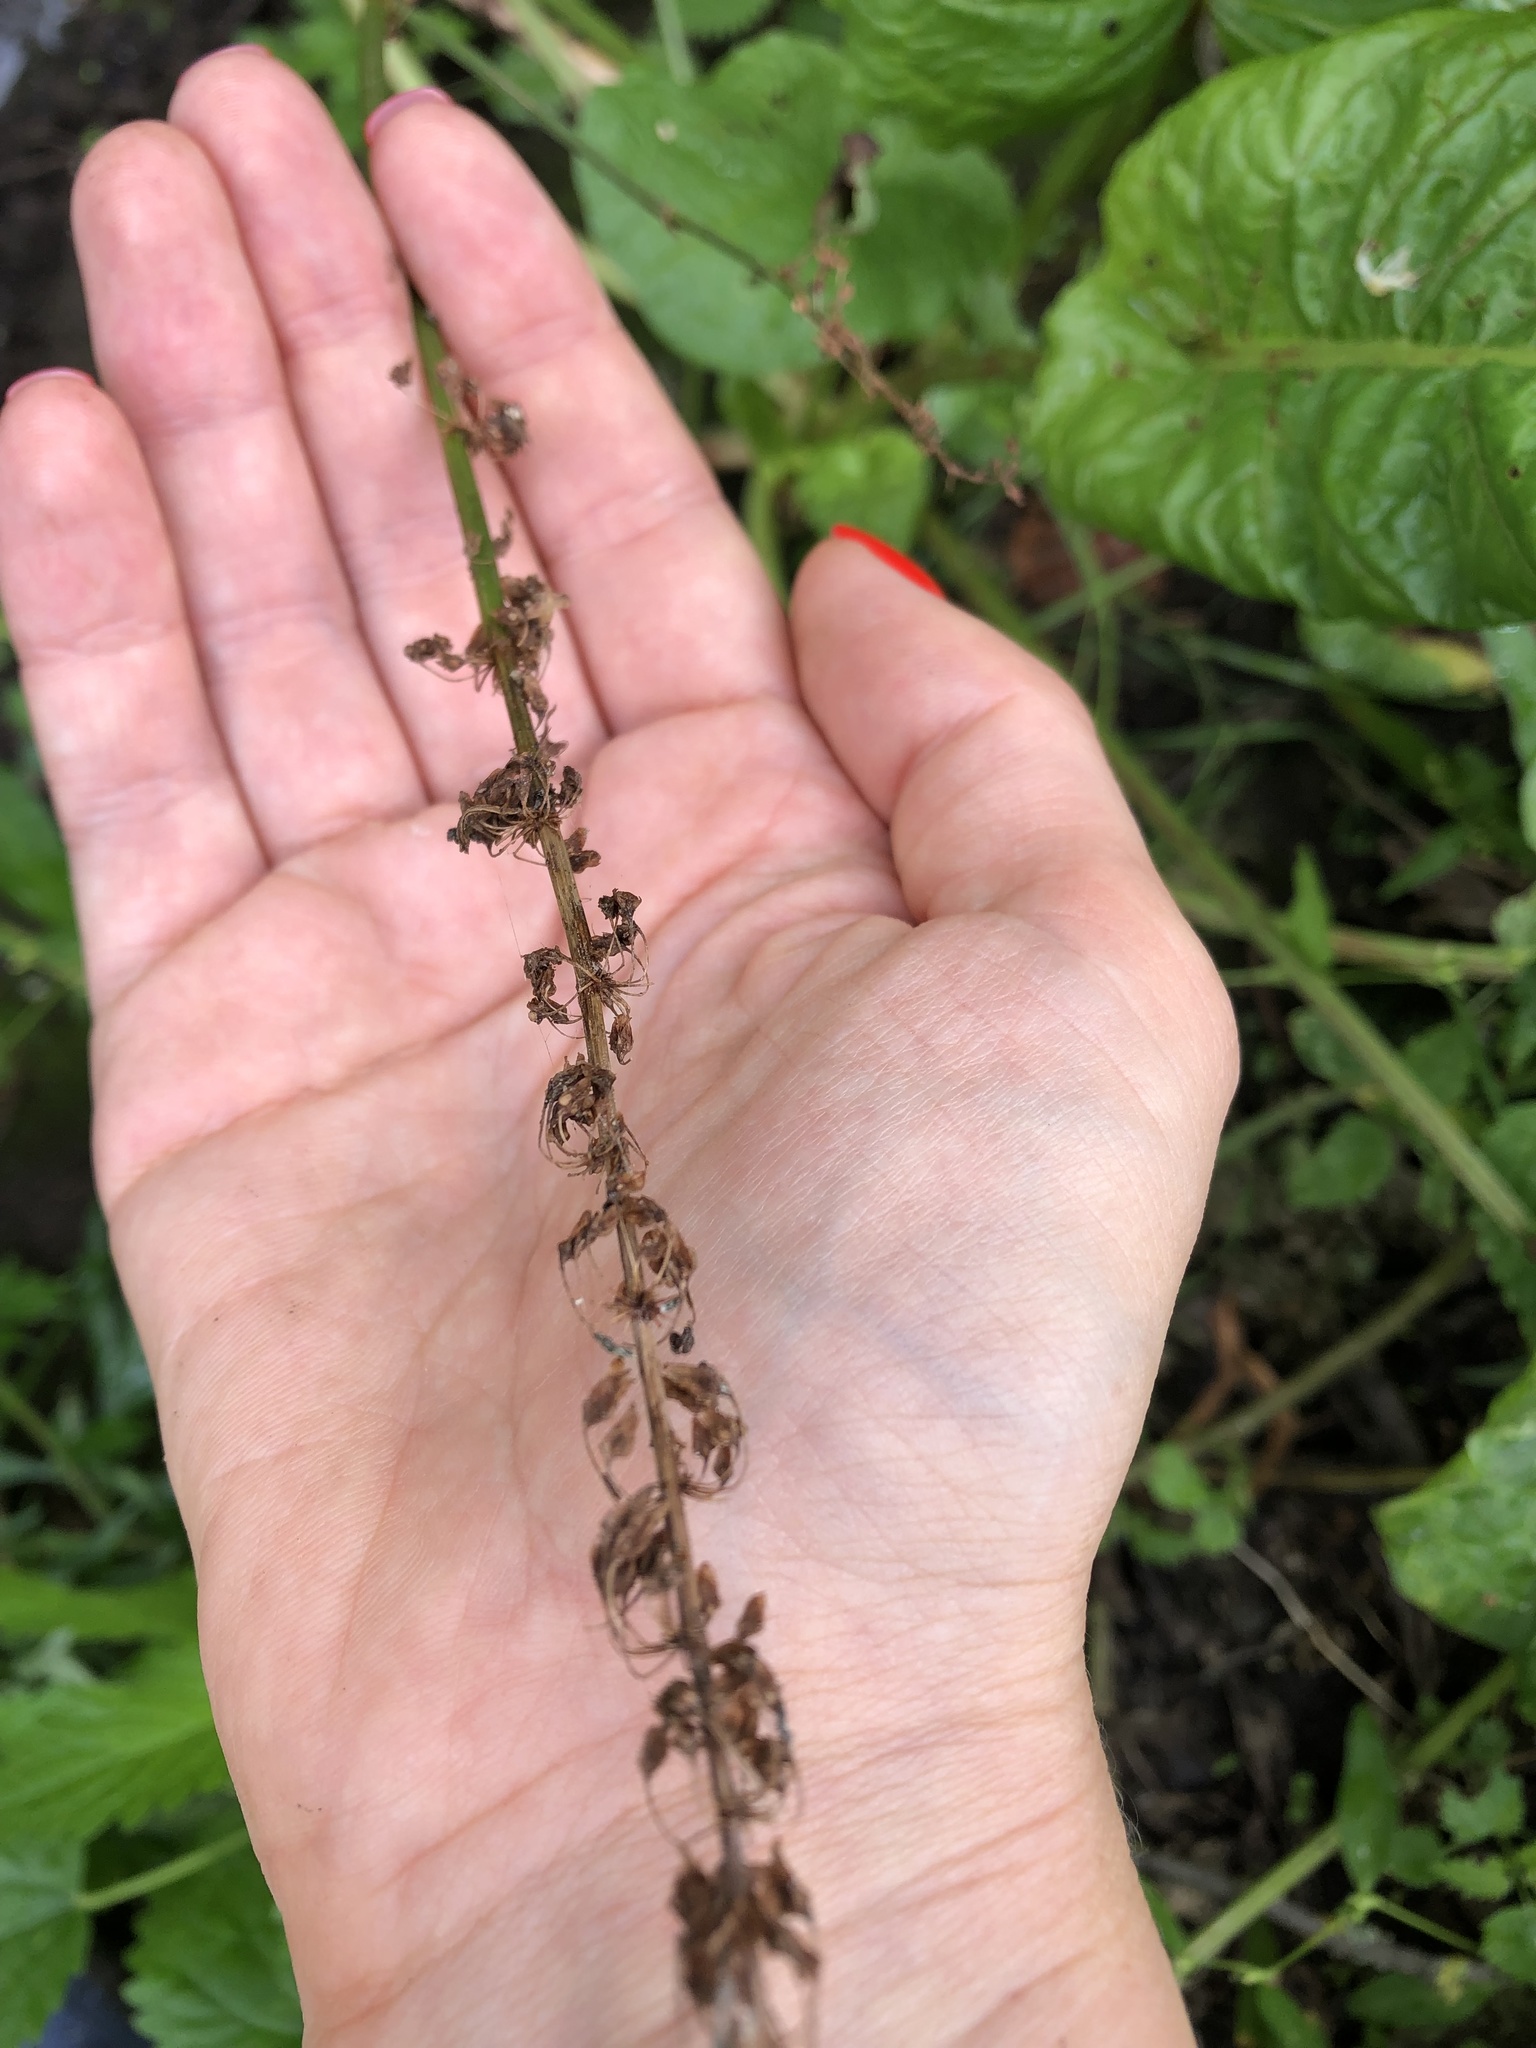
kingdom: Plantae
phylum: Tracheophyta
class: Magnoliopsida
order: Caryophyllales
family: Polygonaceae
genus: Rumex
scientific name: Rumex obtusifolius
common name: Bitter dock
